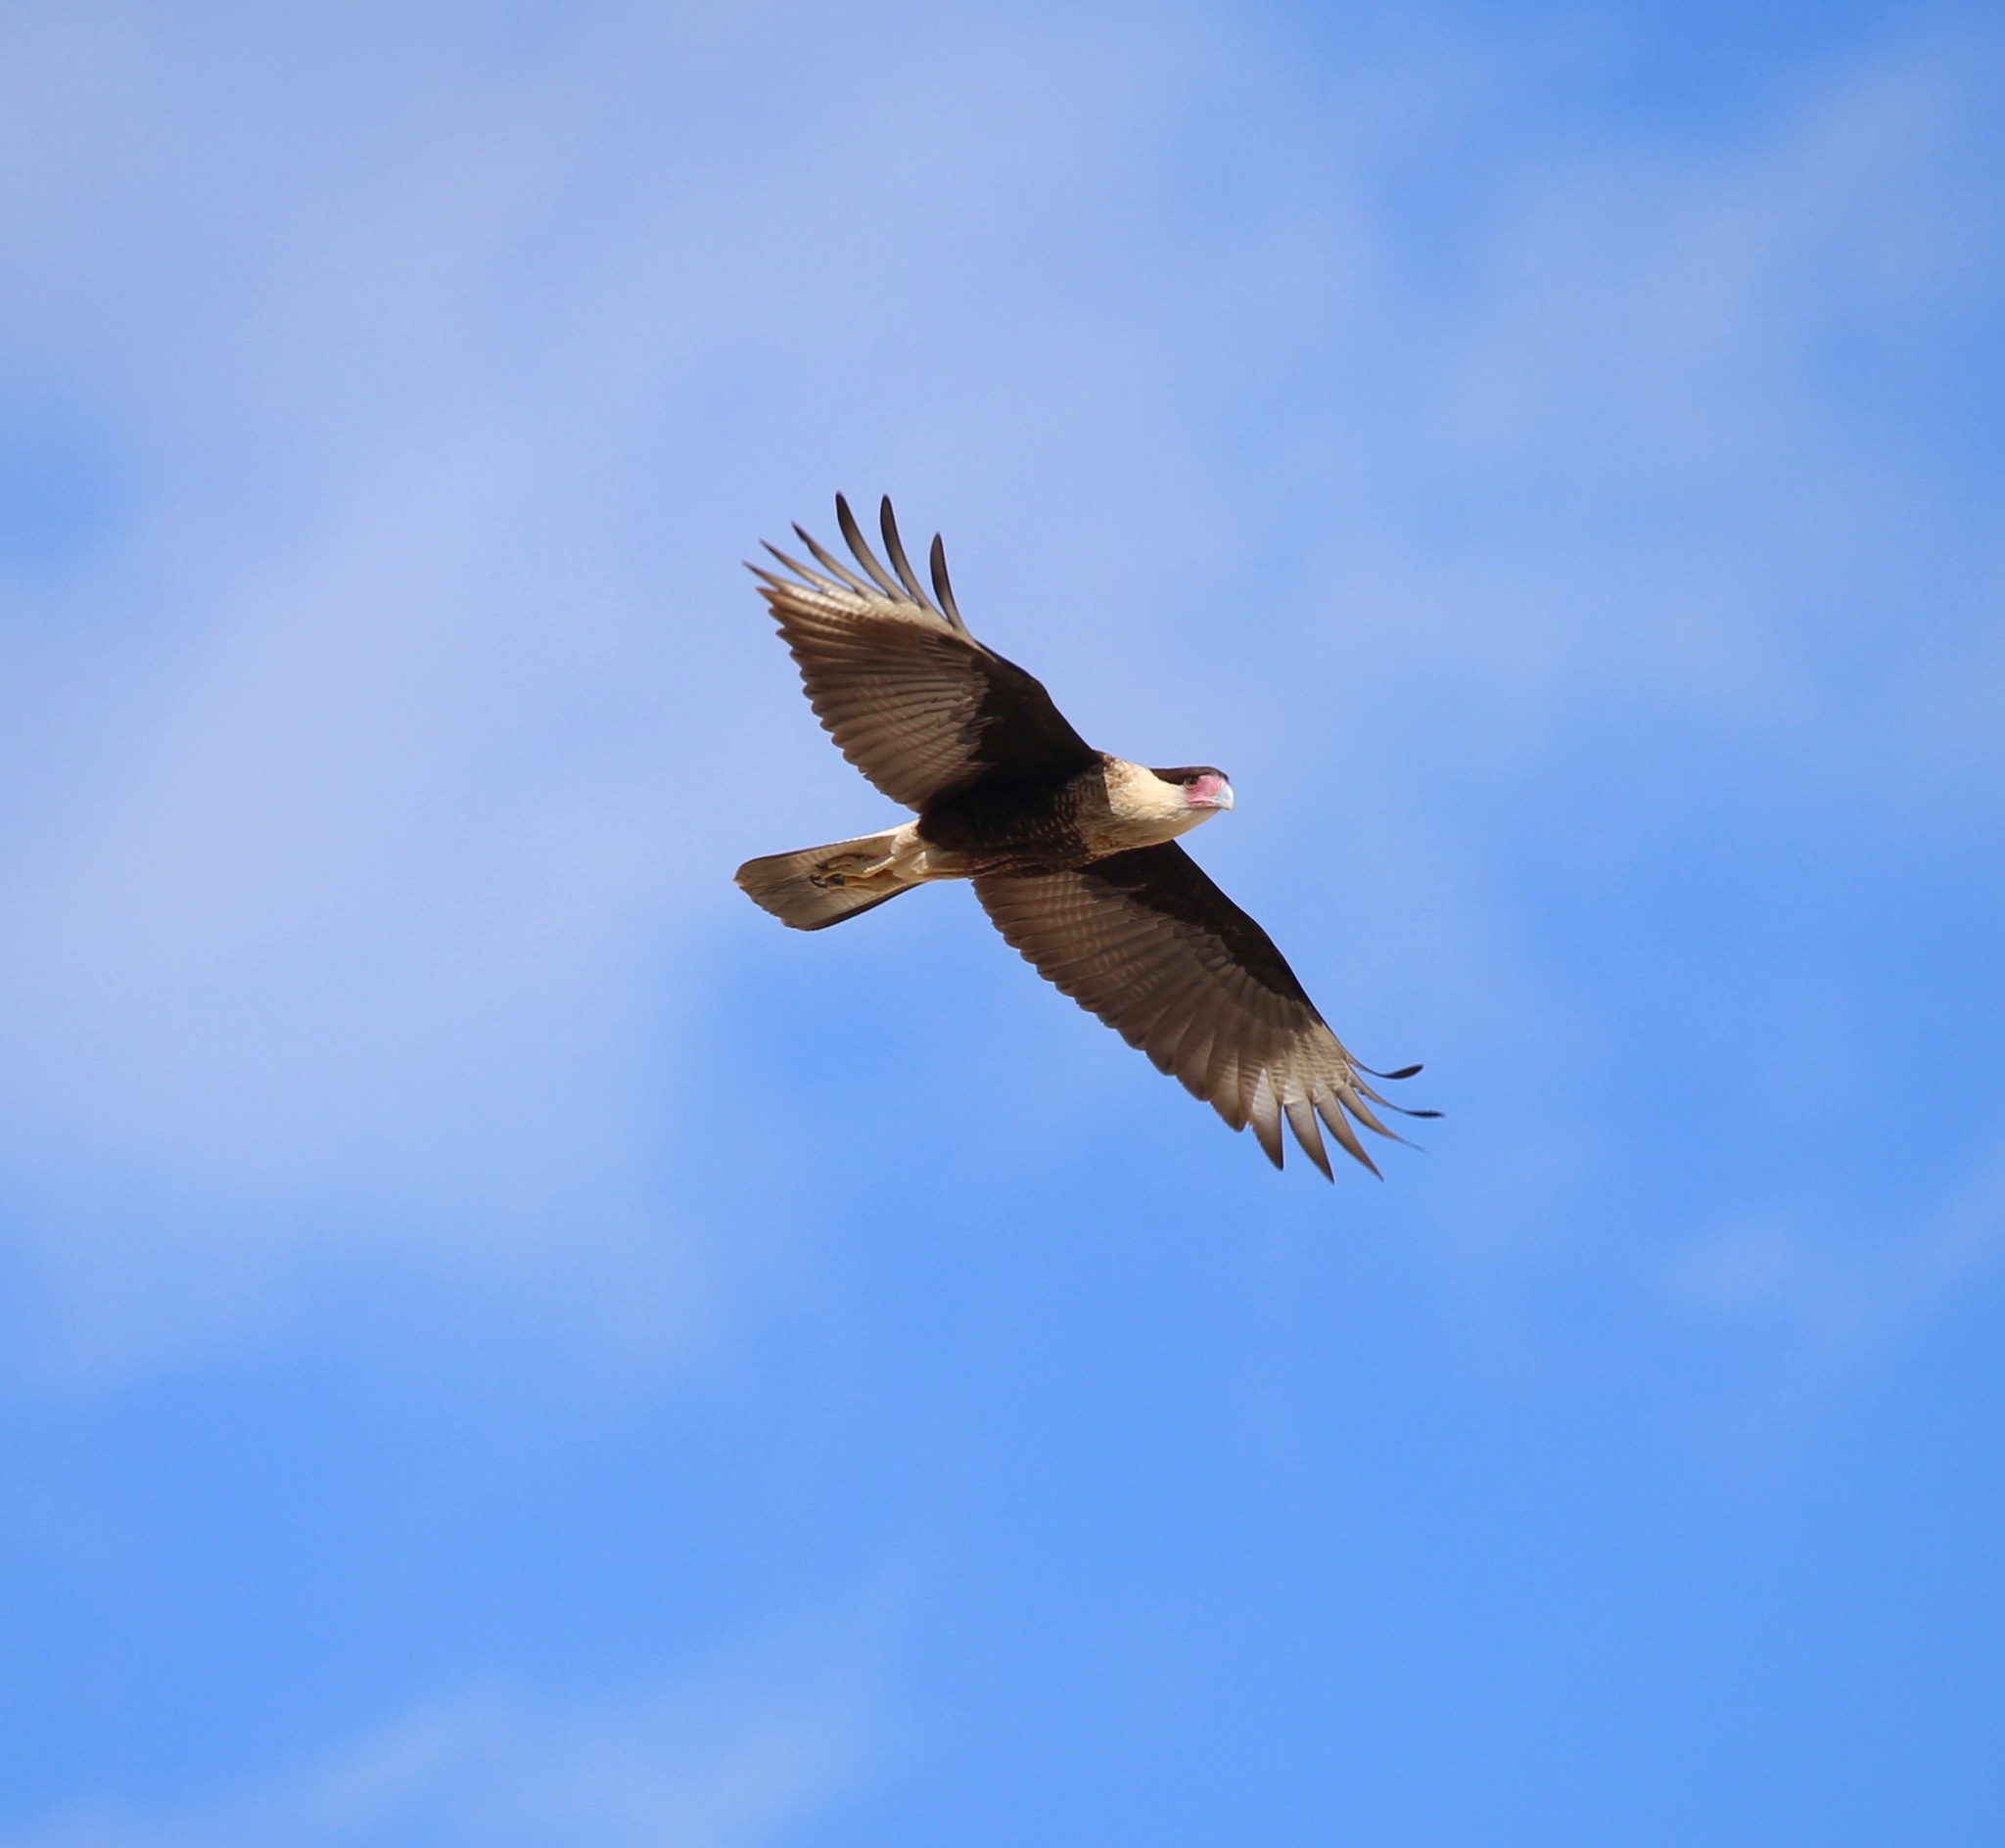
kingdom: Animalia
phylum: Chordata
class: Aves
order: Falconiformes
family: Falconidae
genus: Caracara
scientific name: Caracara plancus
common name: Southern caracara
